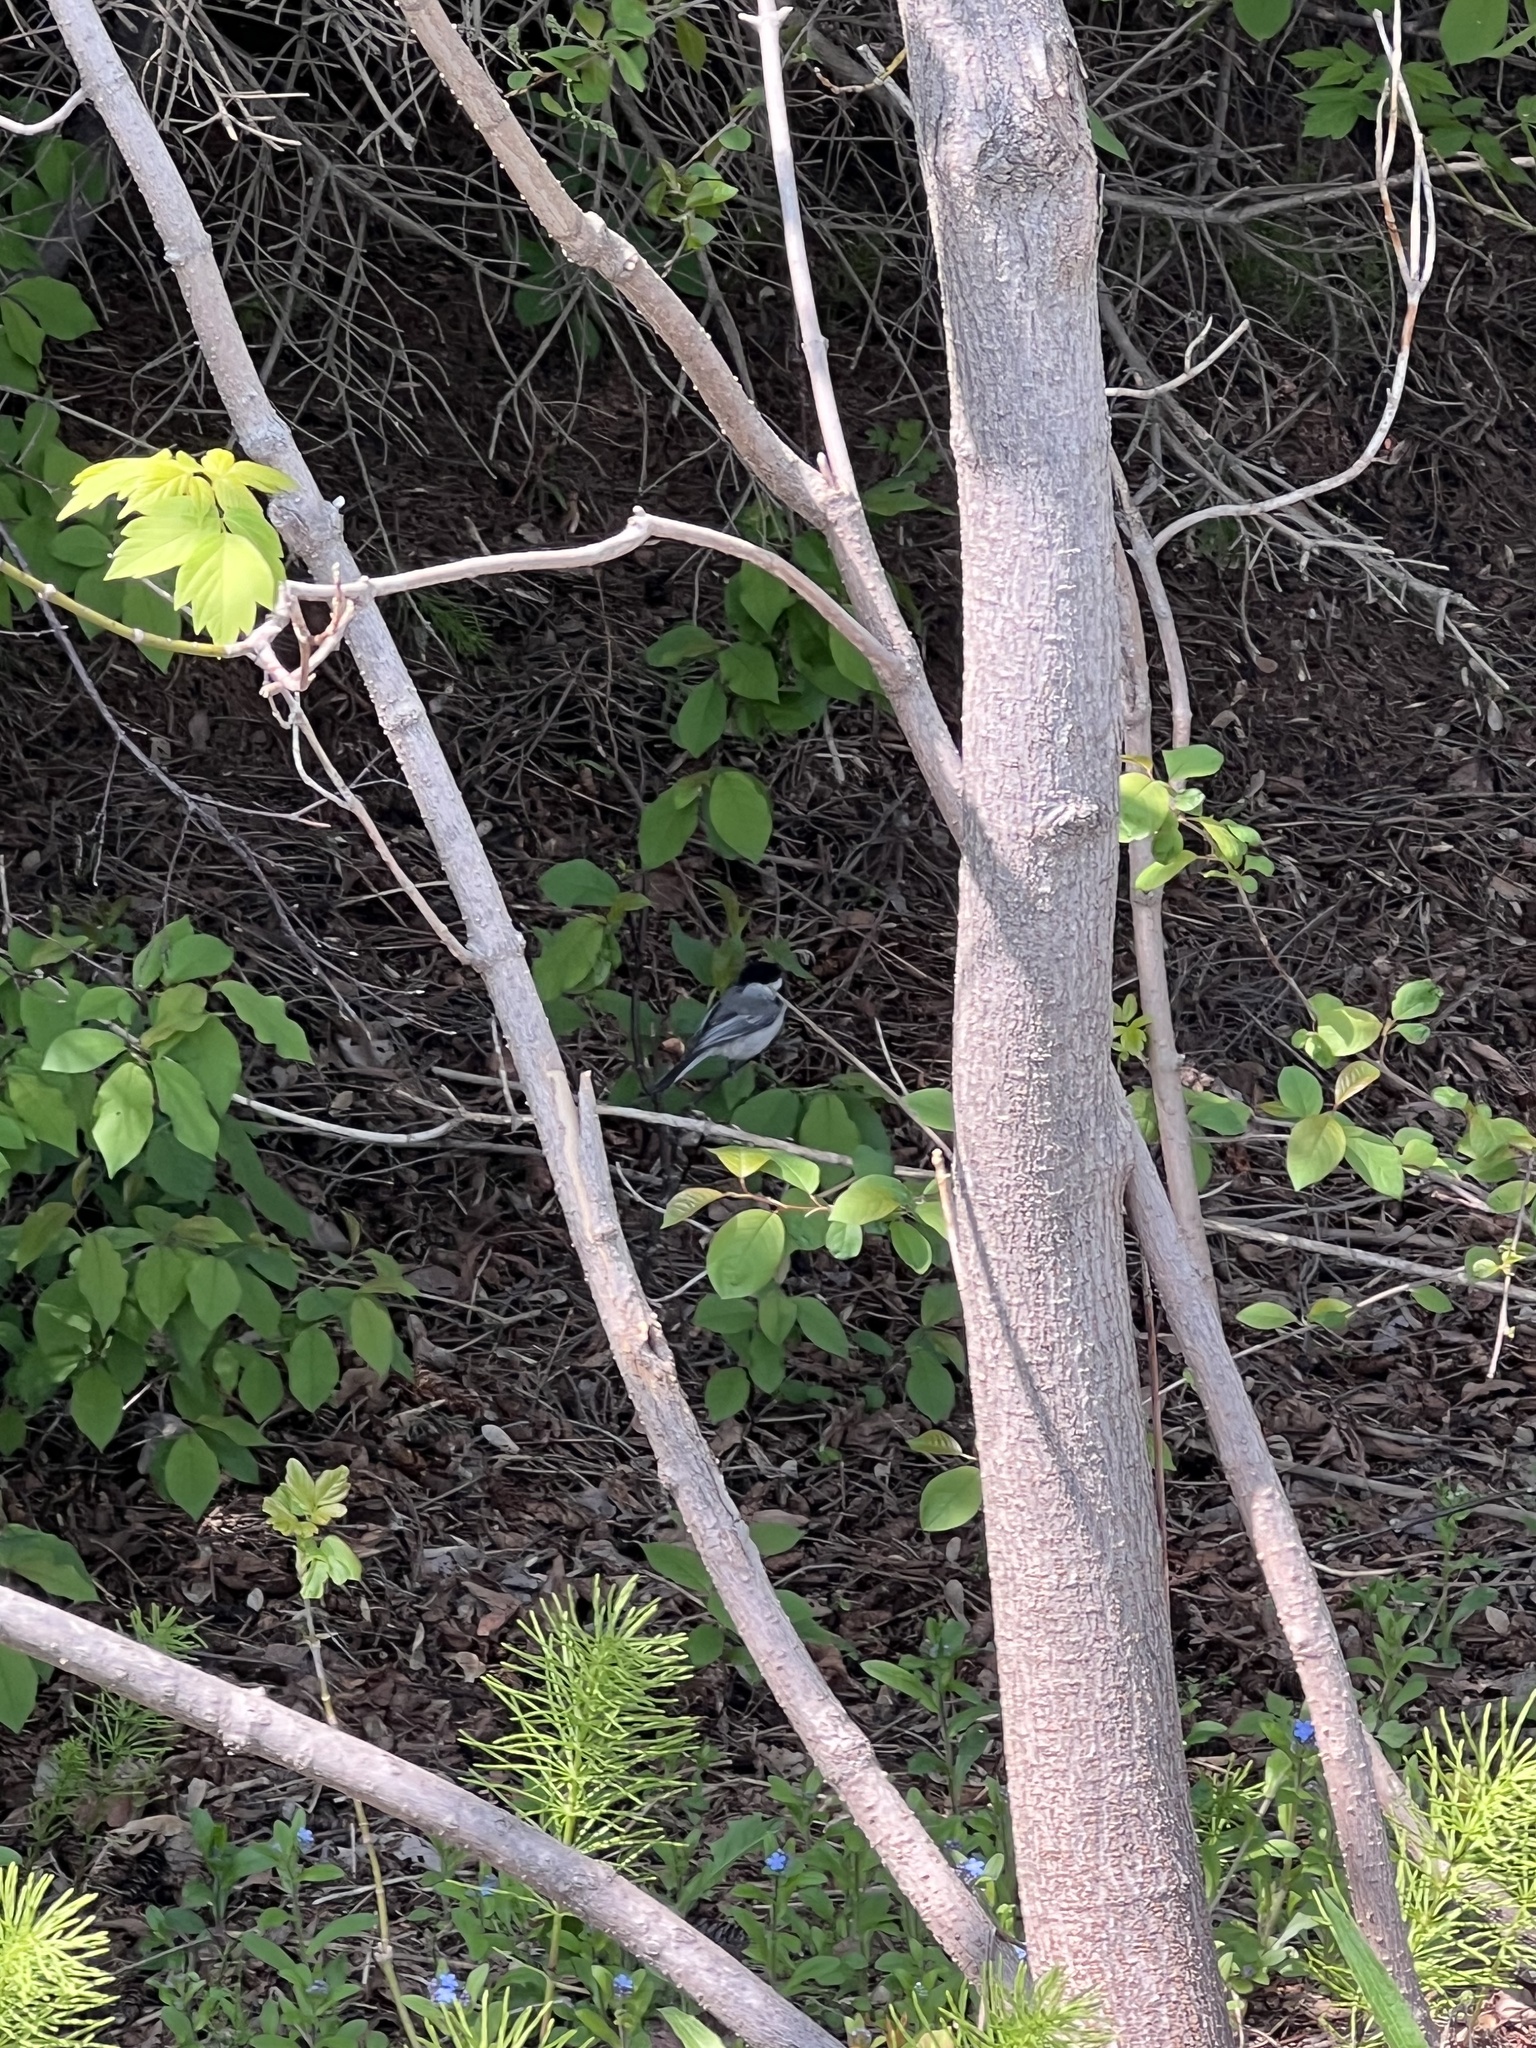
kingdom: Animalia
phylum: Chordata
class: Aves
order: Passeriformes
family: Paridae
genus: Poecile
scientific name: Poecile atricapillus
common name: Black-capped chickadee
